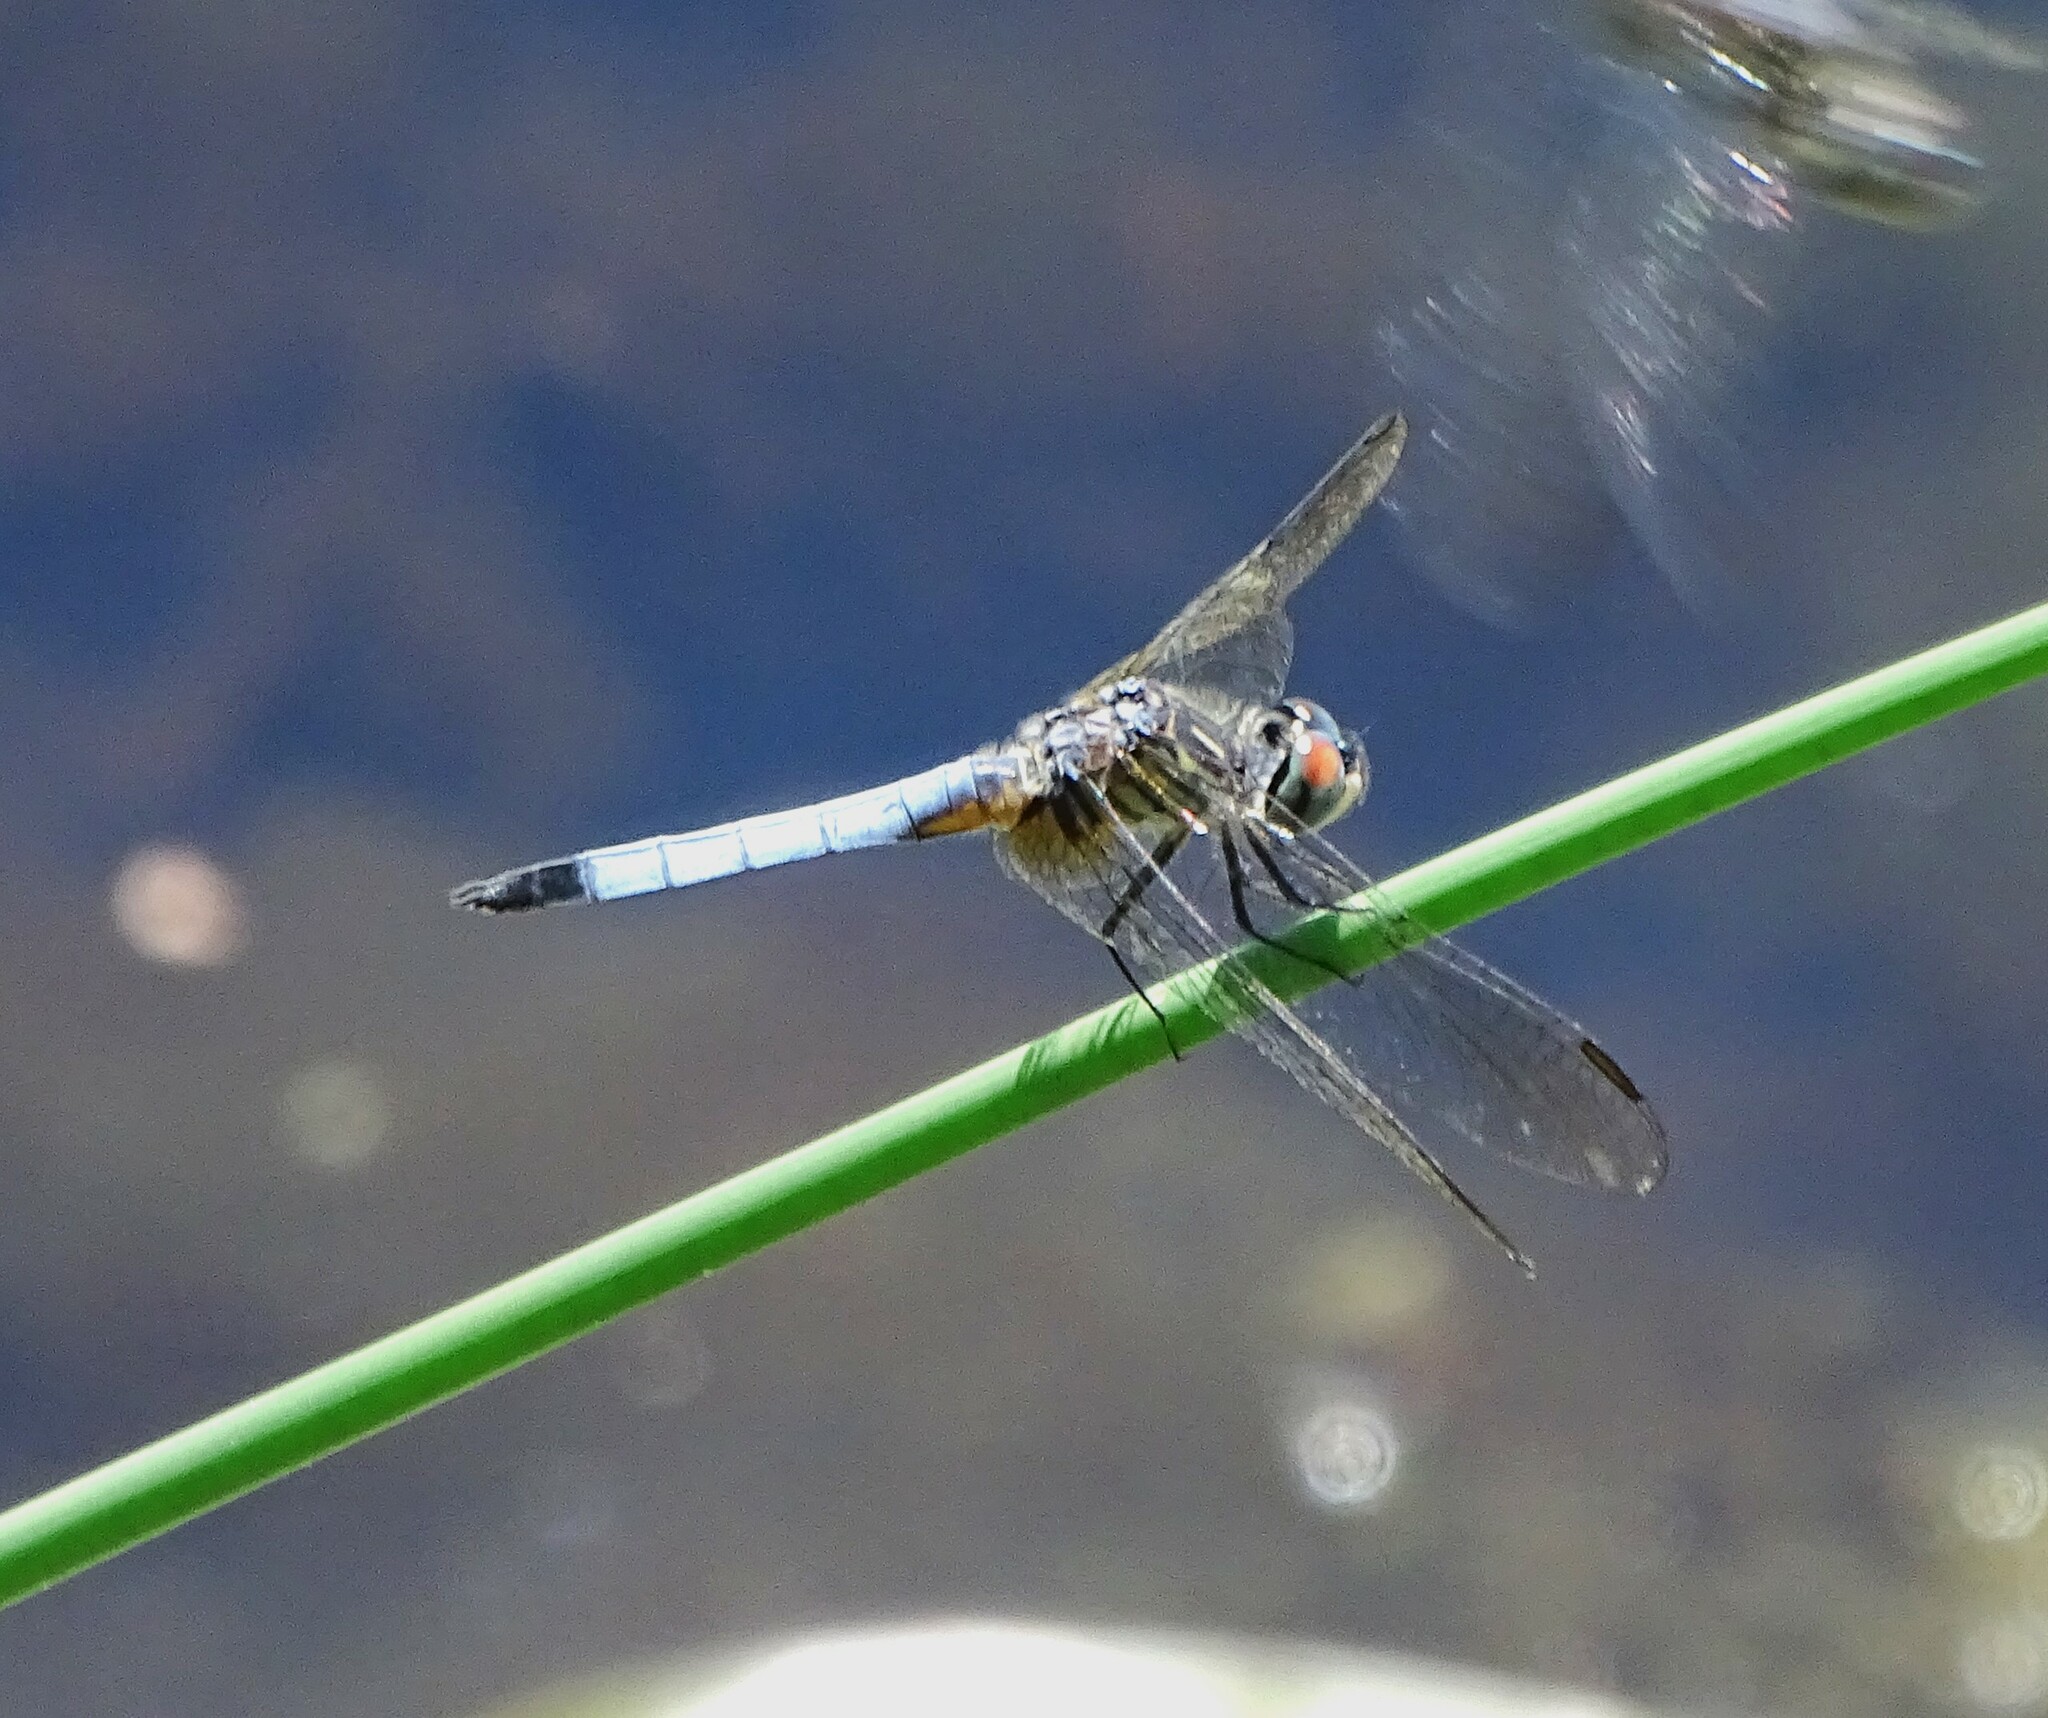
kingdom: Animalia
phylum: Arthropoda
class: Insecta
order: Odonata
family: Libellulidae
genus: Pachydiplax
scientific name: Pachydiplax longipennis
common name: Blue dasher
